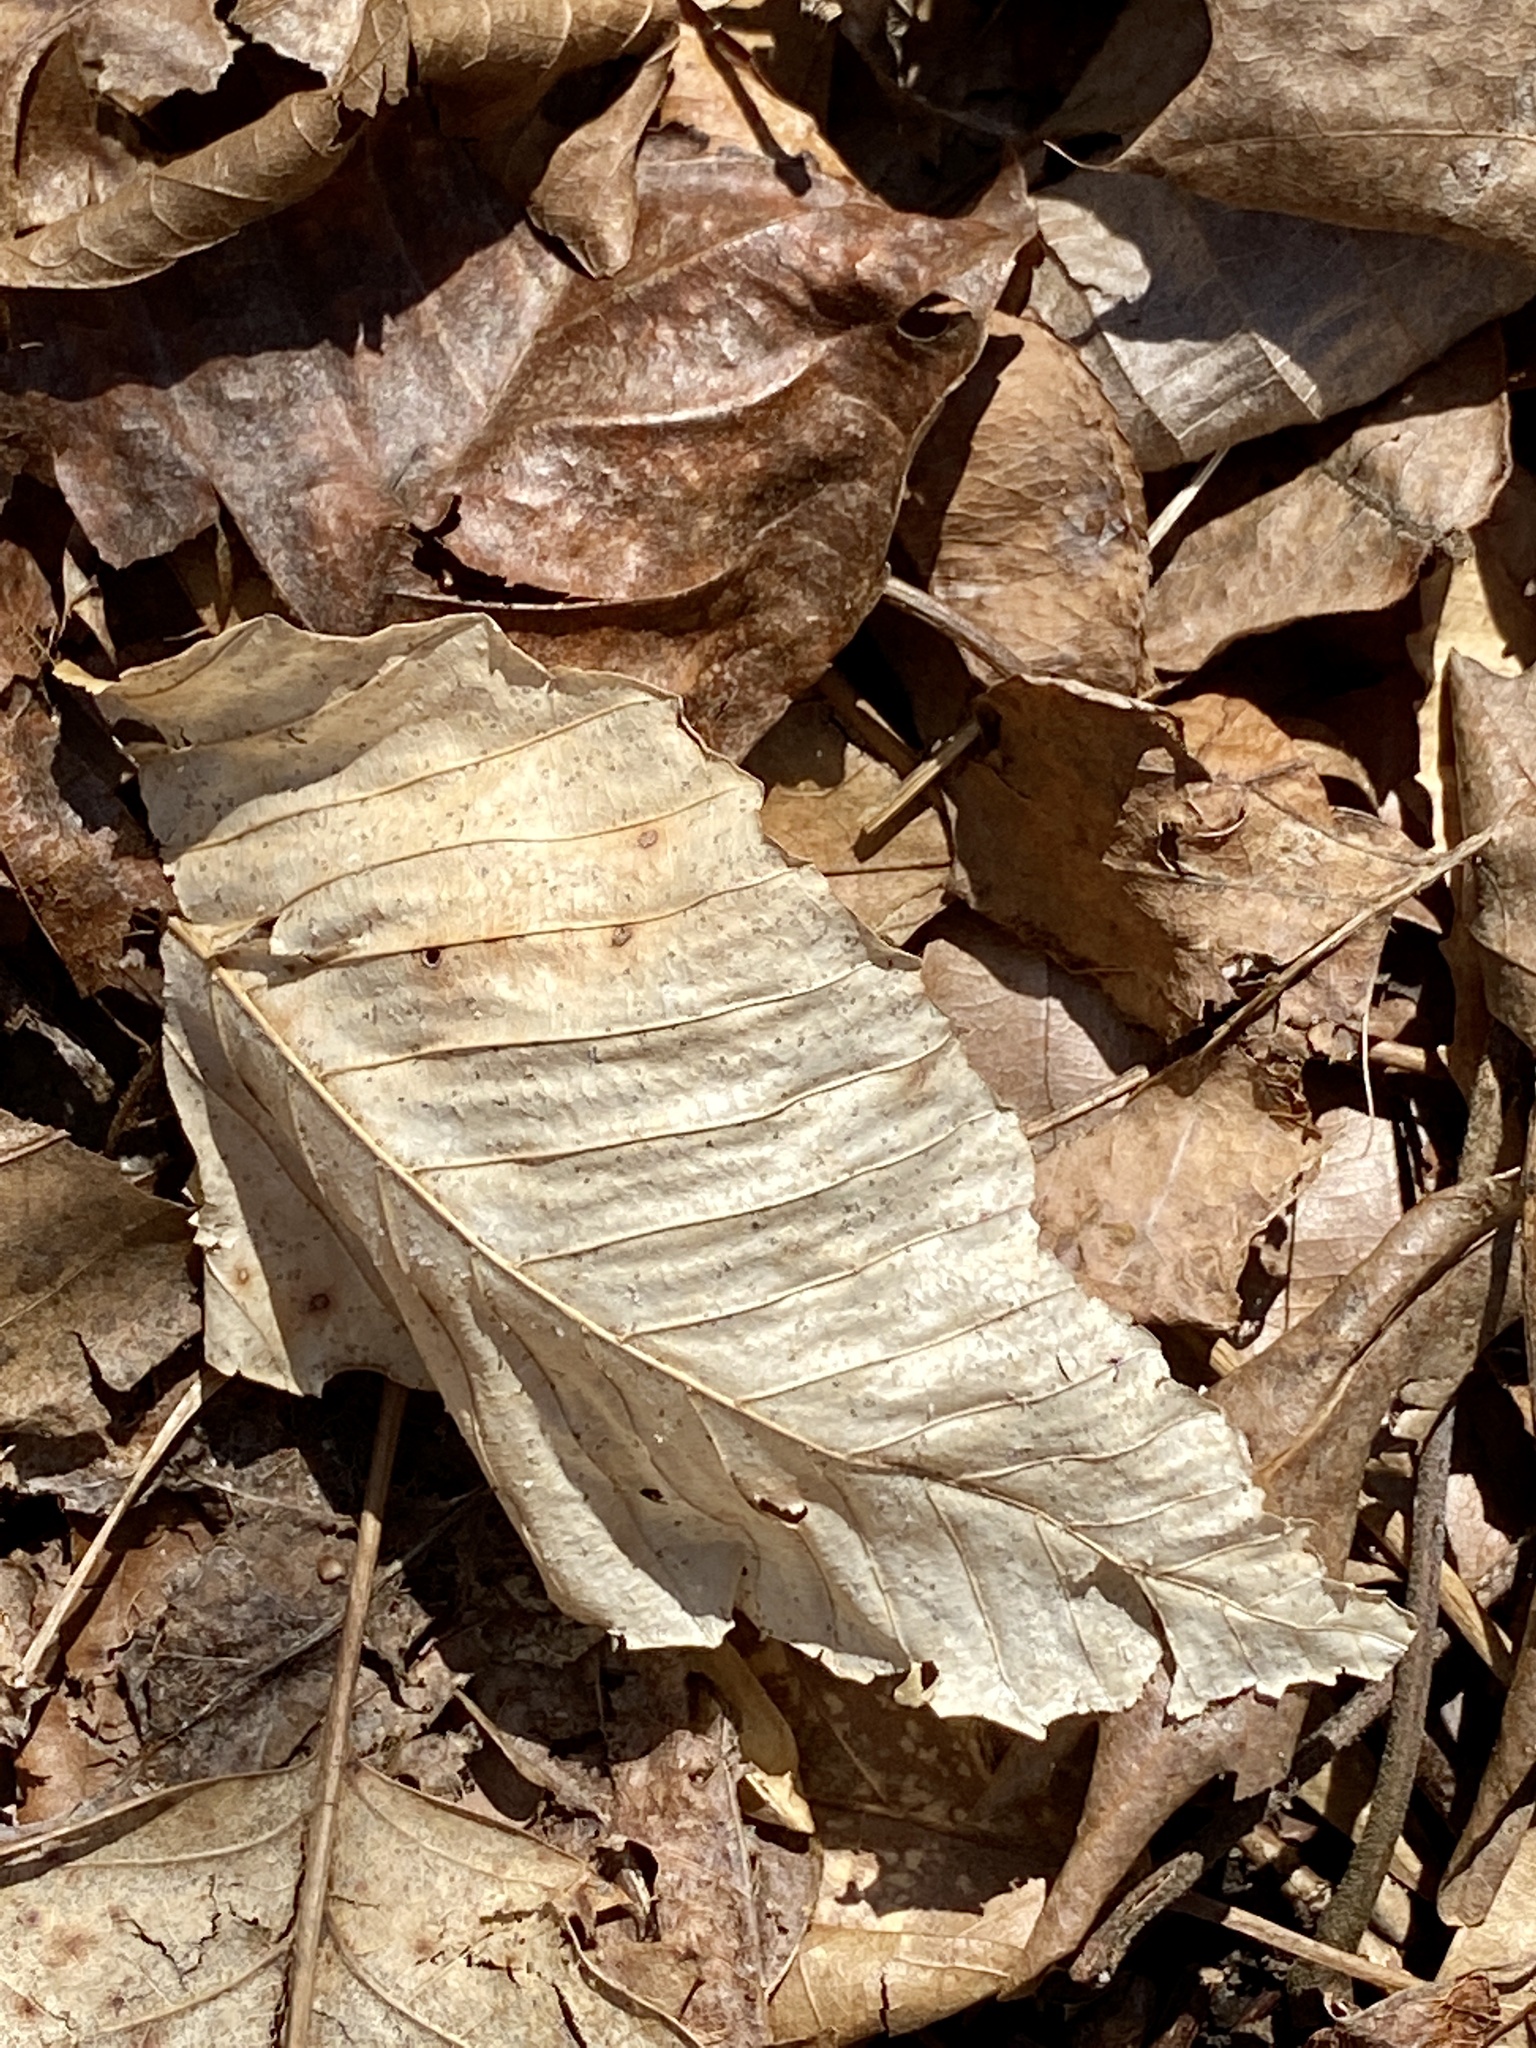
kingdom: Plantae
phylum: Tracheophyta
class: Magnoliopsida
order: Fagales
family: Fagaceae
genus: Fagus
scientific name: Fagus grandifolia
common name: American beech
